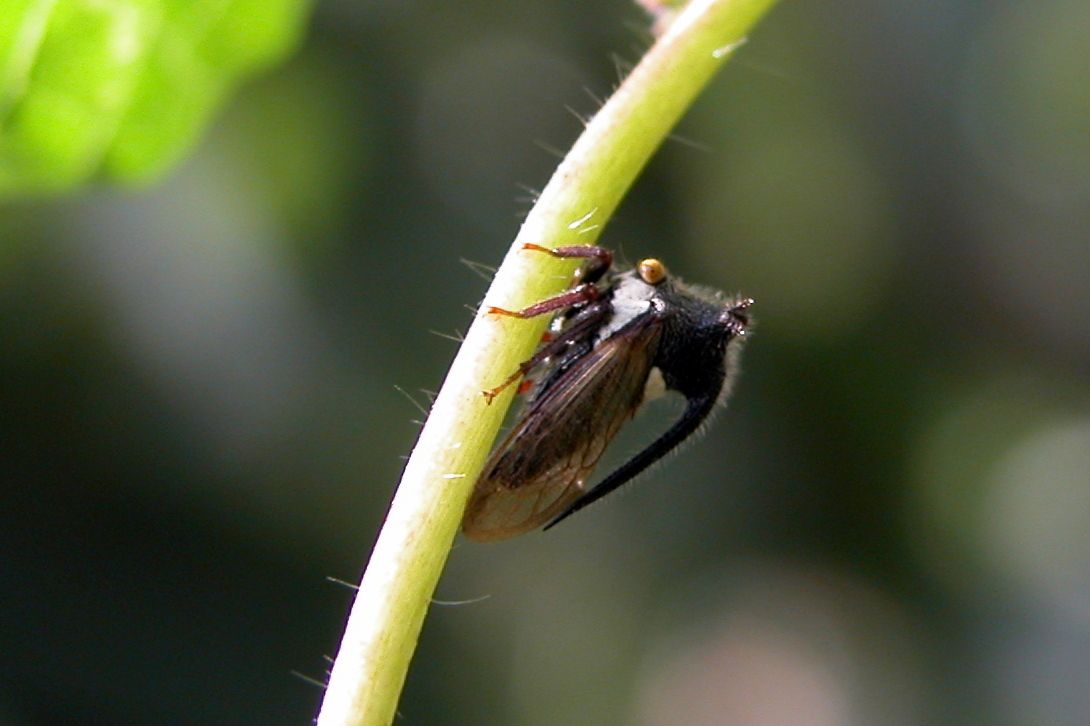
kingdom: Animalia
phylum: Arthropoda
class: Insecta
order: Hemiptera
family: Membracidae
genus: Leptocentrus
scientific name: Leptocentrus taurus
